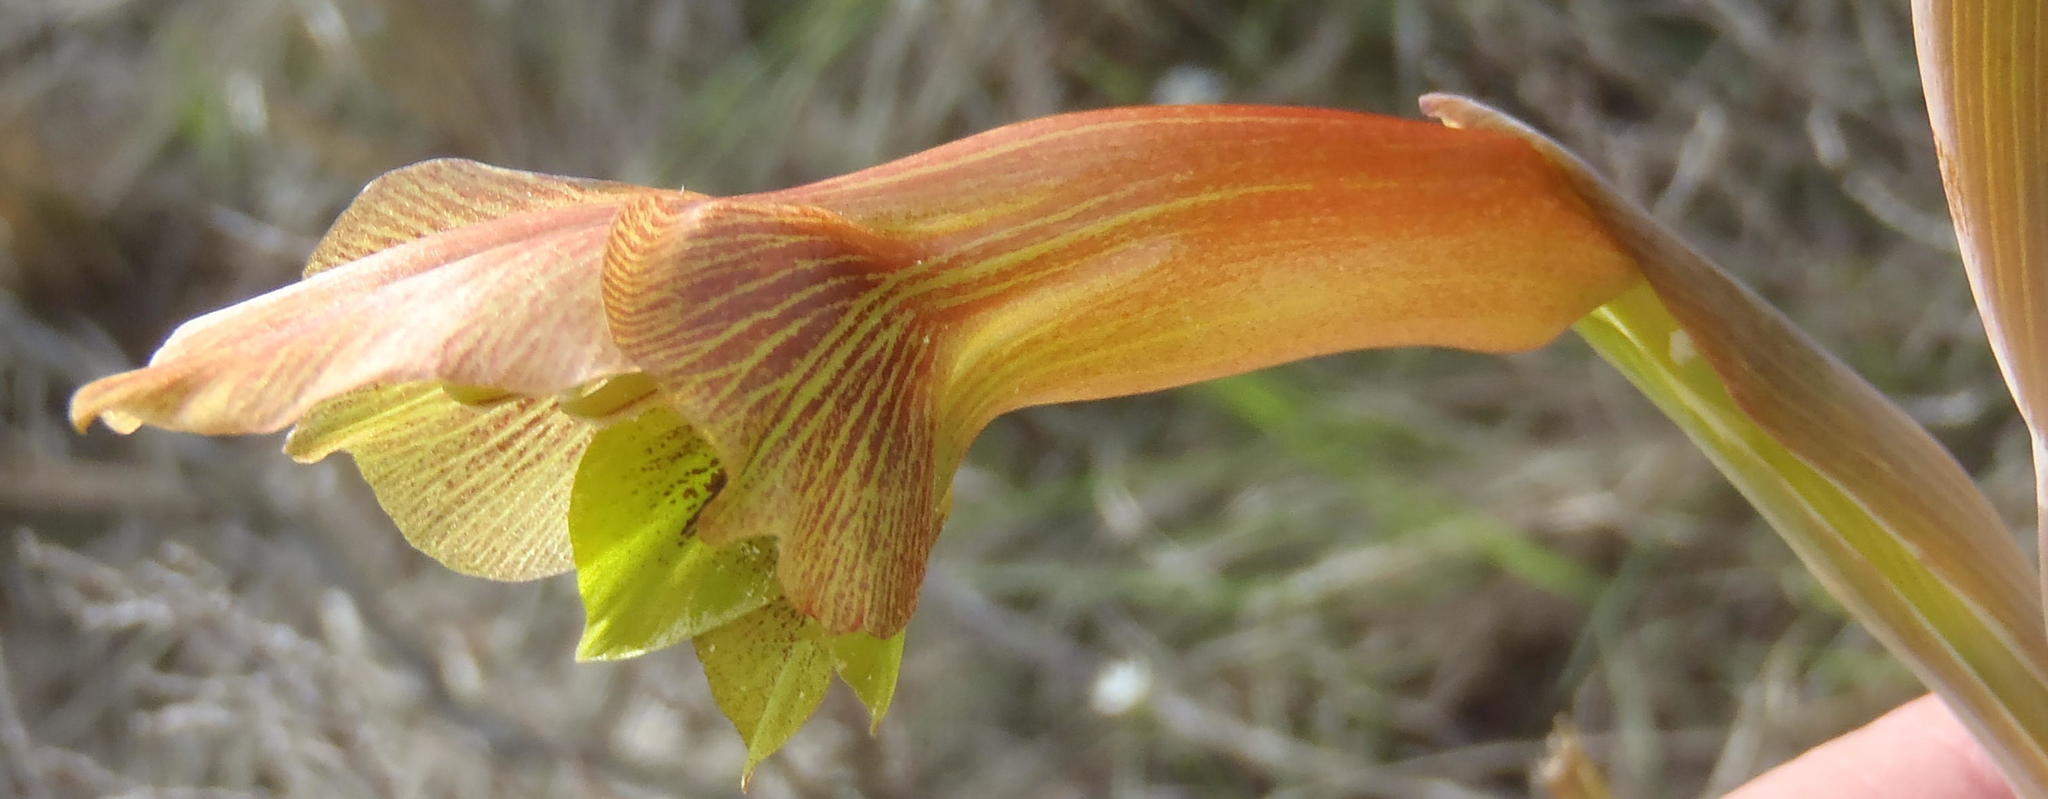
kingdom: Plantae
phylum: Tracheophyta
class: Liliopsida
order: Asparagales
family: Iridaceae
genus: Gladiolus
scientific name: Gladiolus fourcadei
